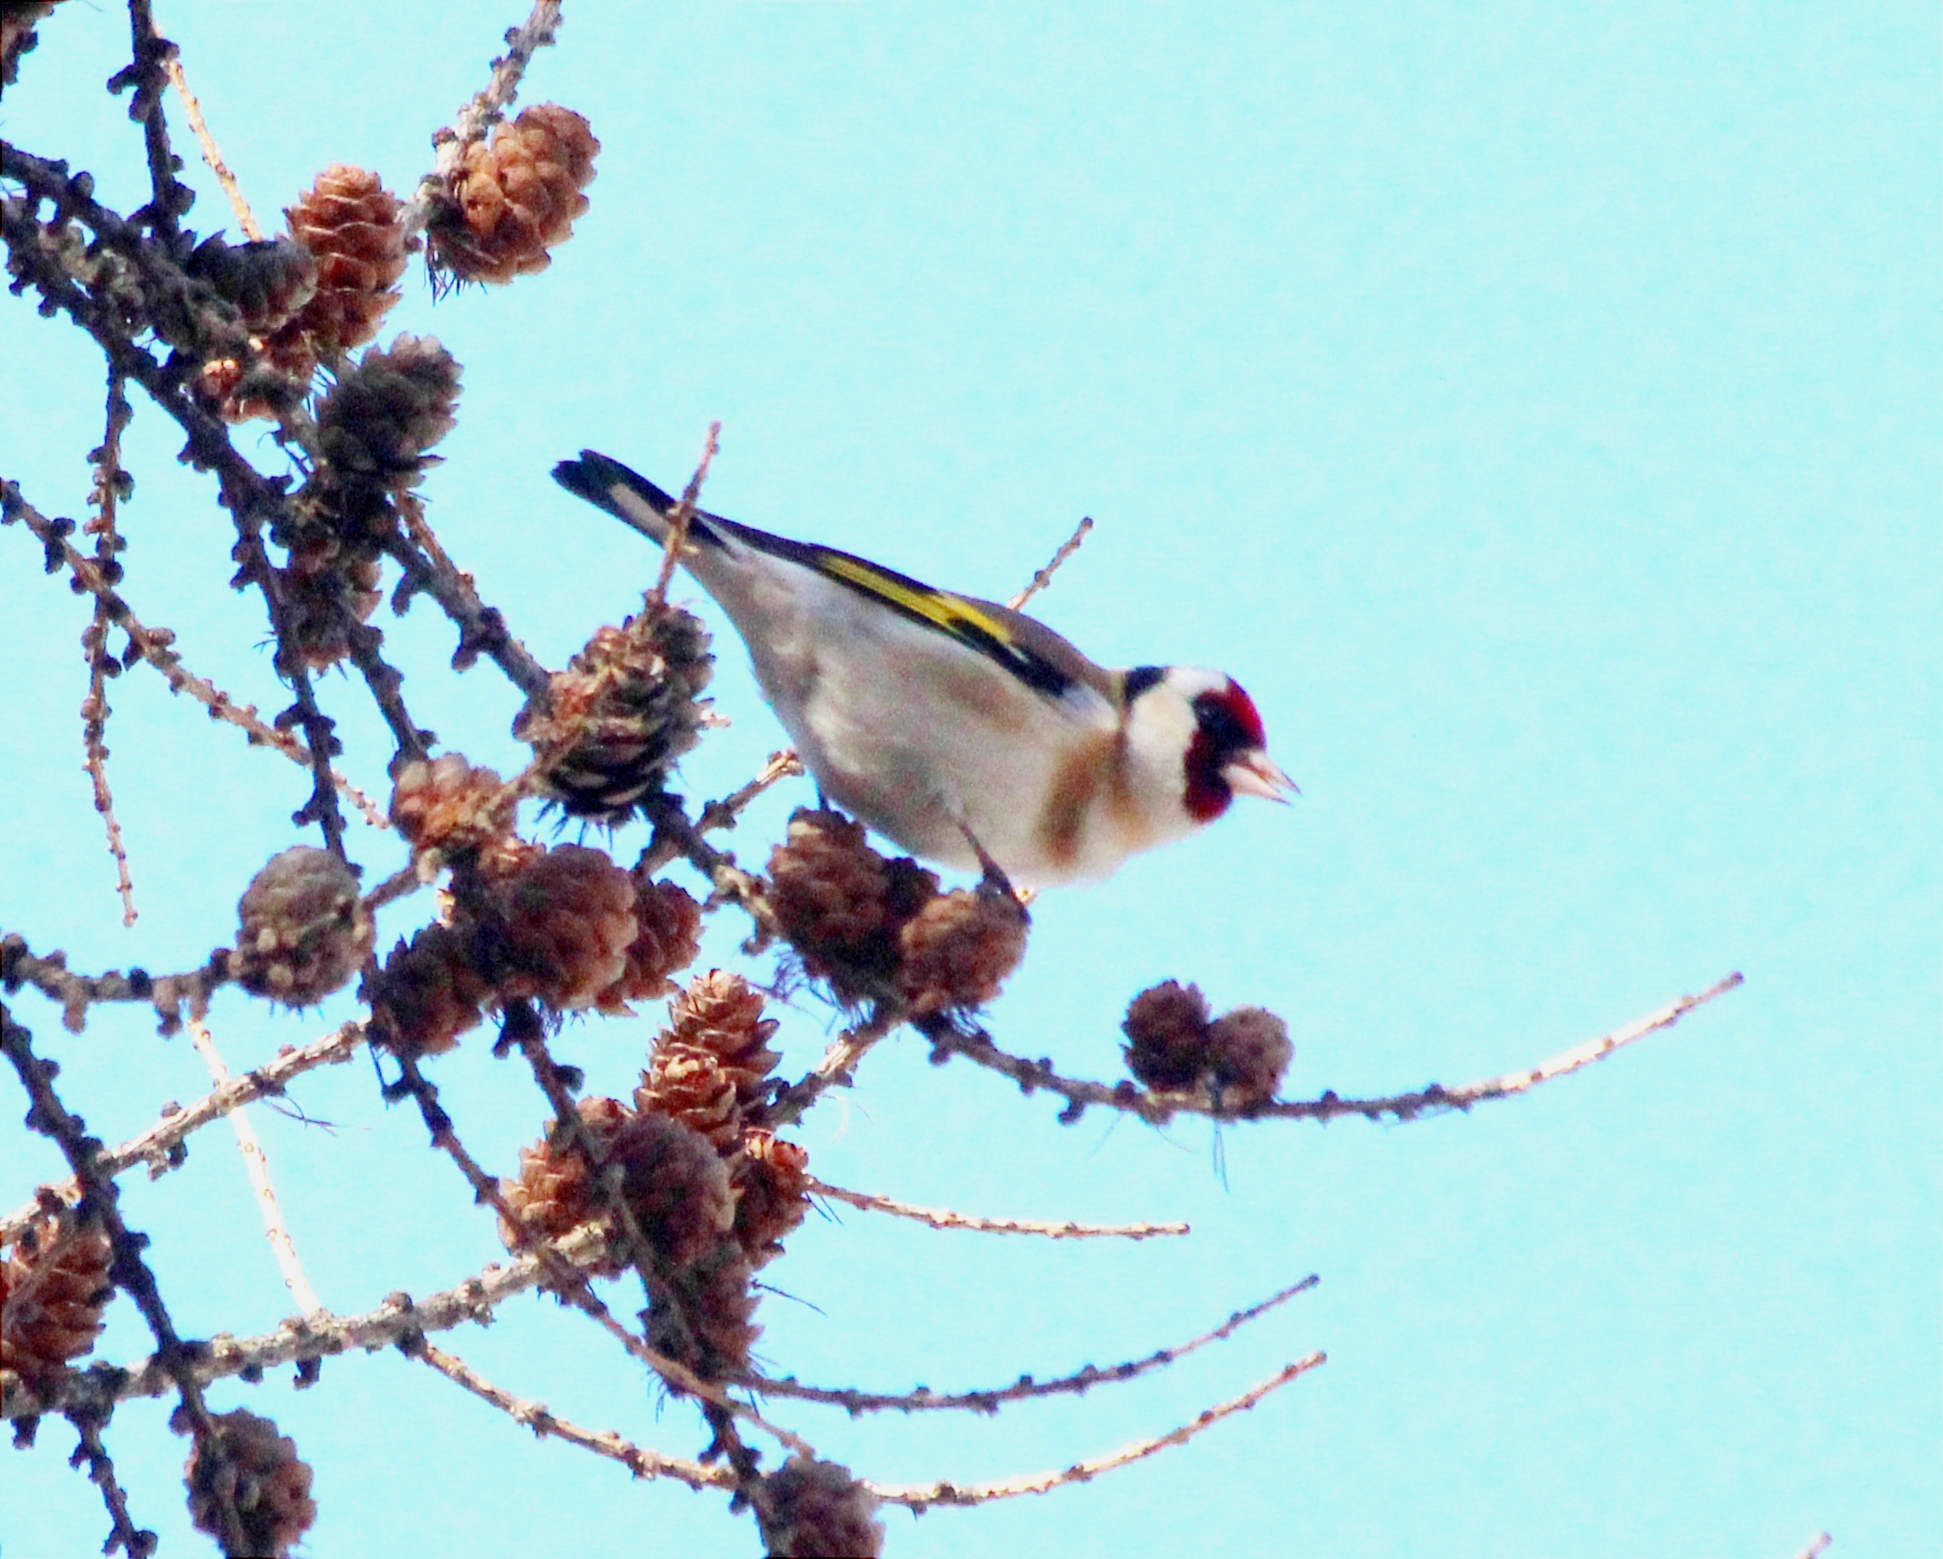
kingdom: Animalia
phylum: Chordata
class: Aves
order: Passeriformes
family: Fringillidae
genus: Carduelis
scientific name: Carduelis carduelis
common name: European goldfinch
